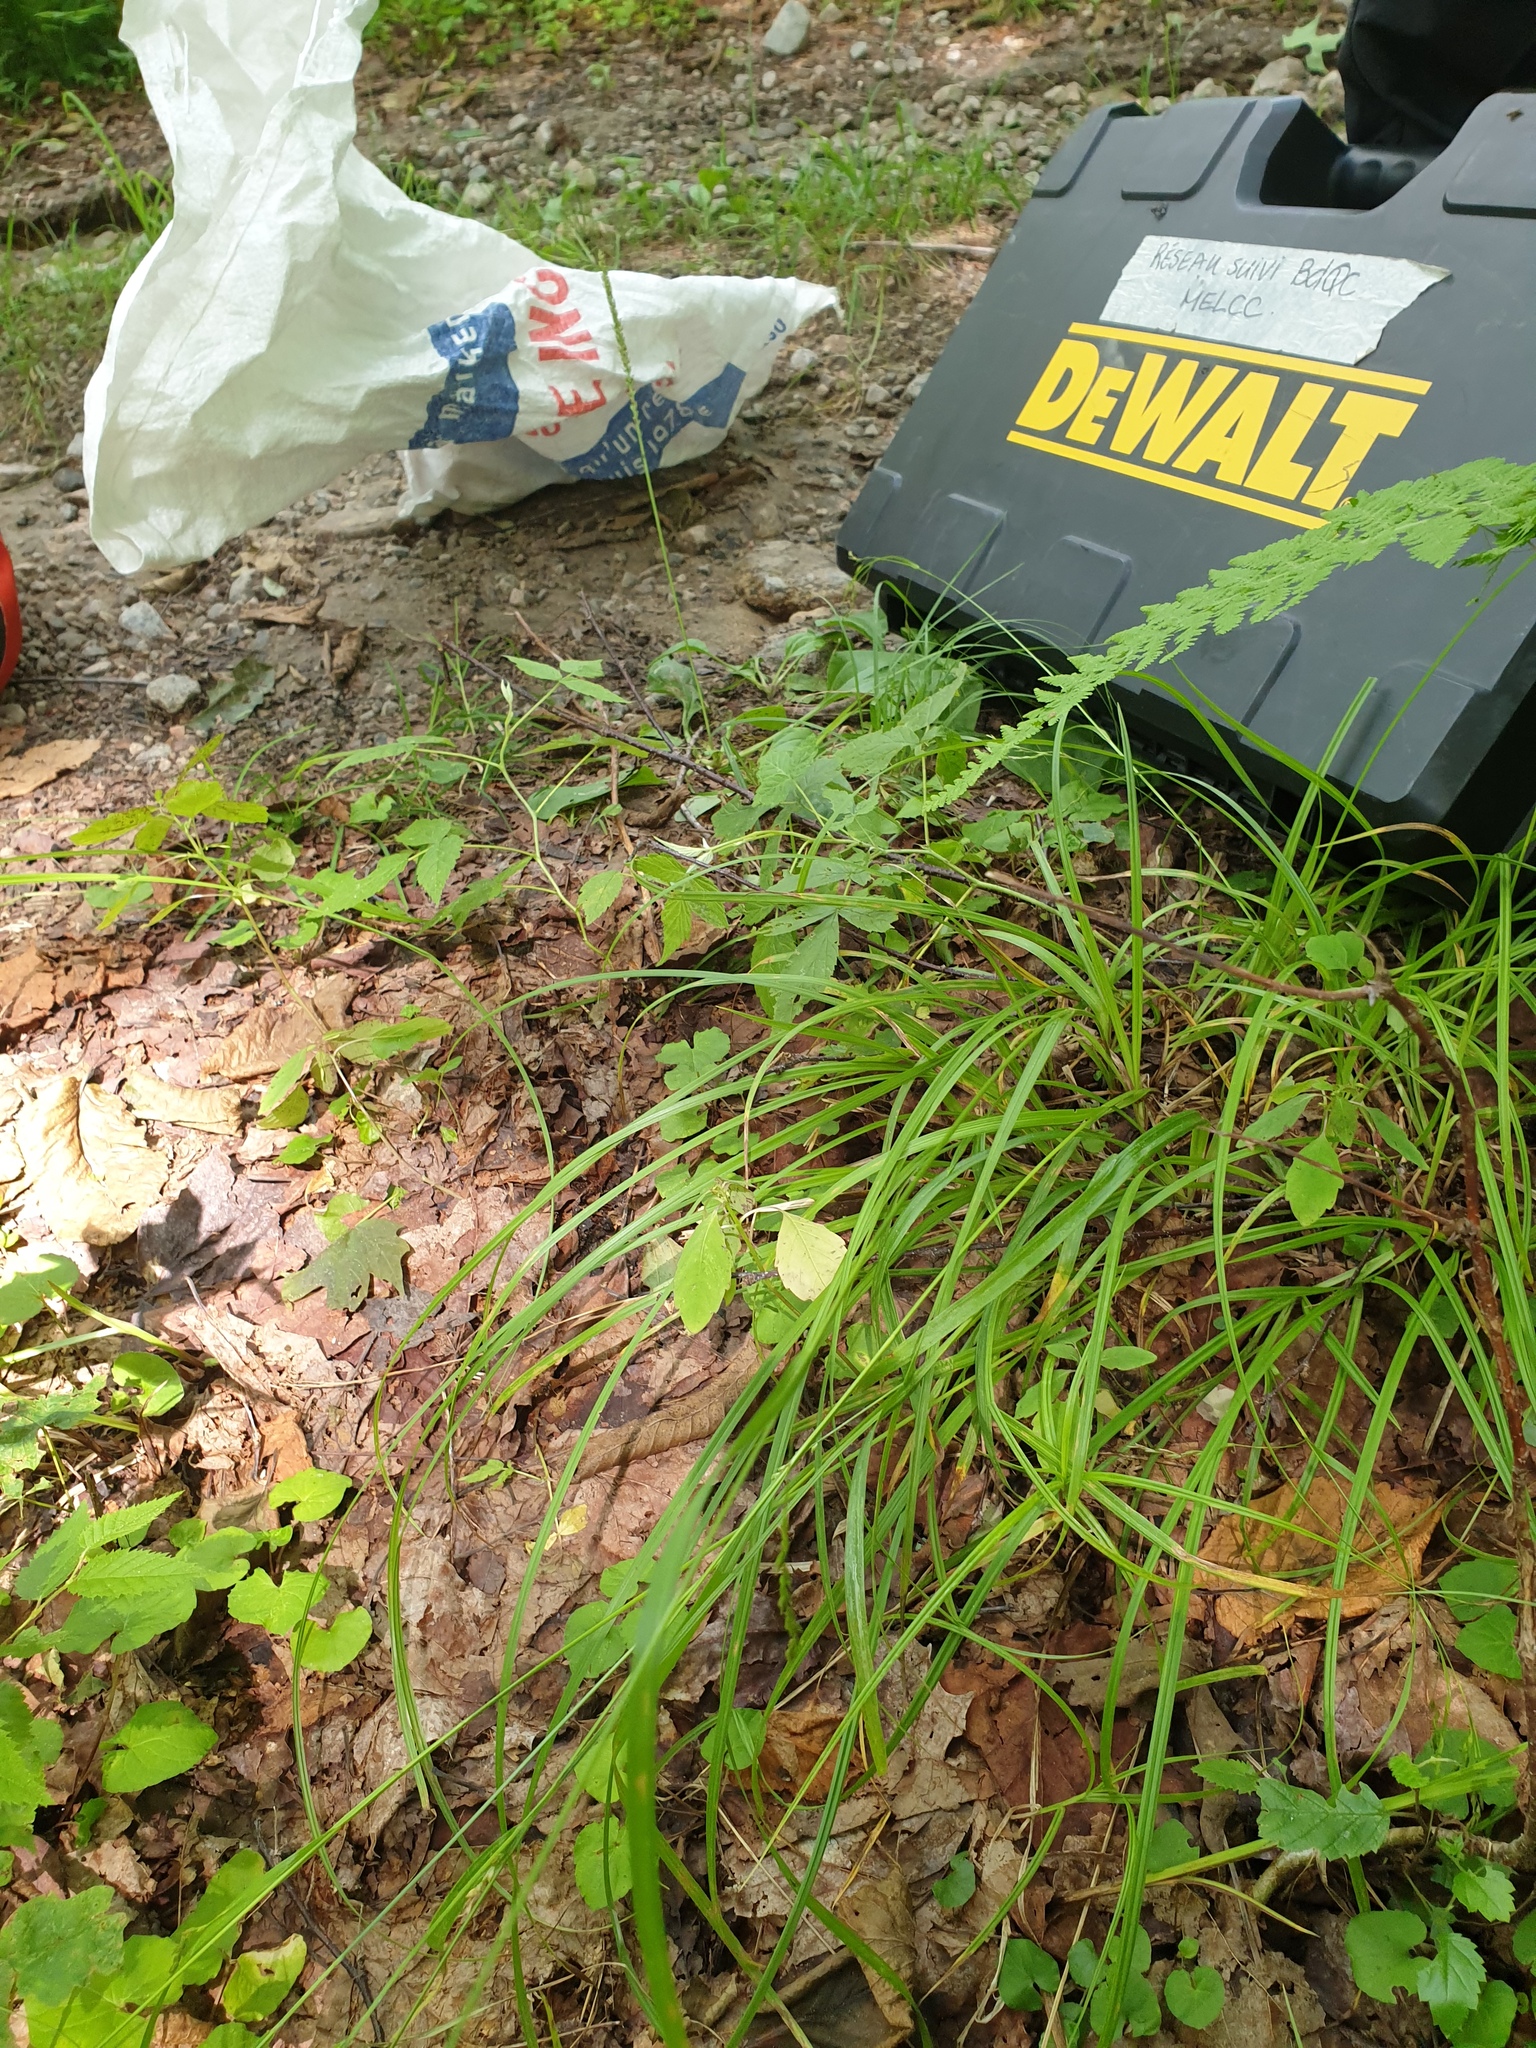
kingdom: Plantae
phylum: Tracheophyta
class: Liliopsida
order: Poales
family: Cyperaceae
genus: Carex
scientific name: Carex debilis
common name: White-edge sedge
